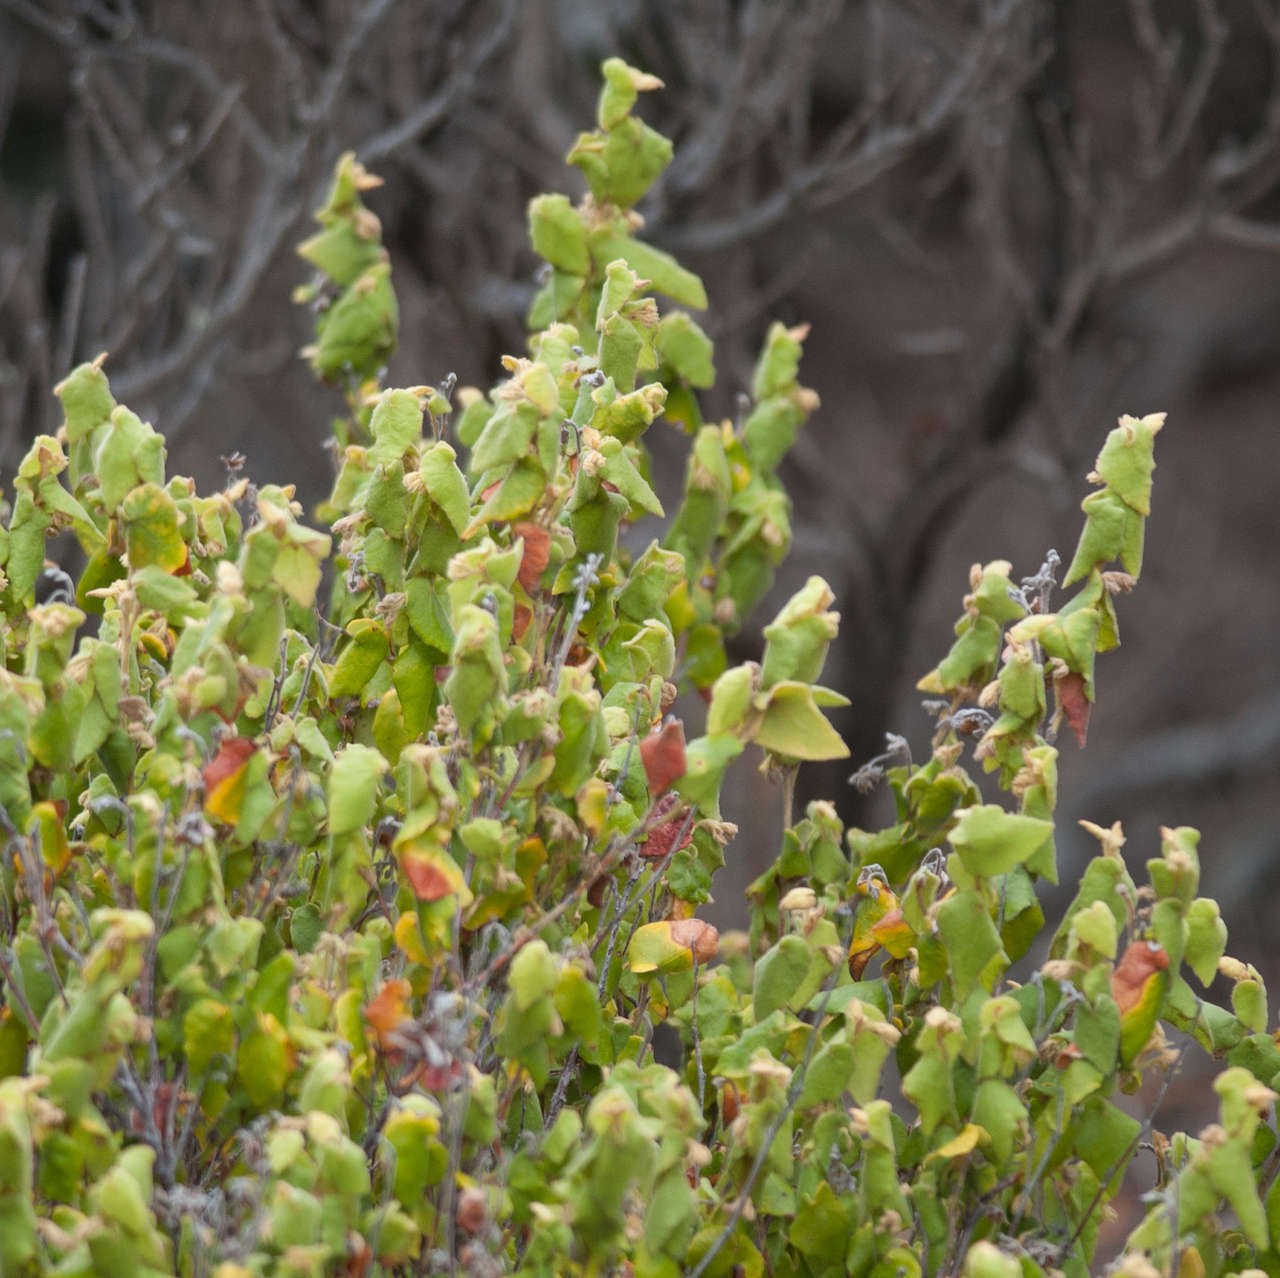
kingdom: Plantae
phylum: Tracheophyta
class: Magnoliopsida
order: Malvales
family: Malvaceae
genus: Lasiopetalum
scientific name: Lasiopetalum schulzenii
